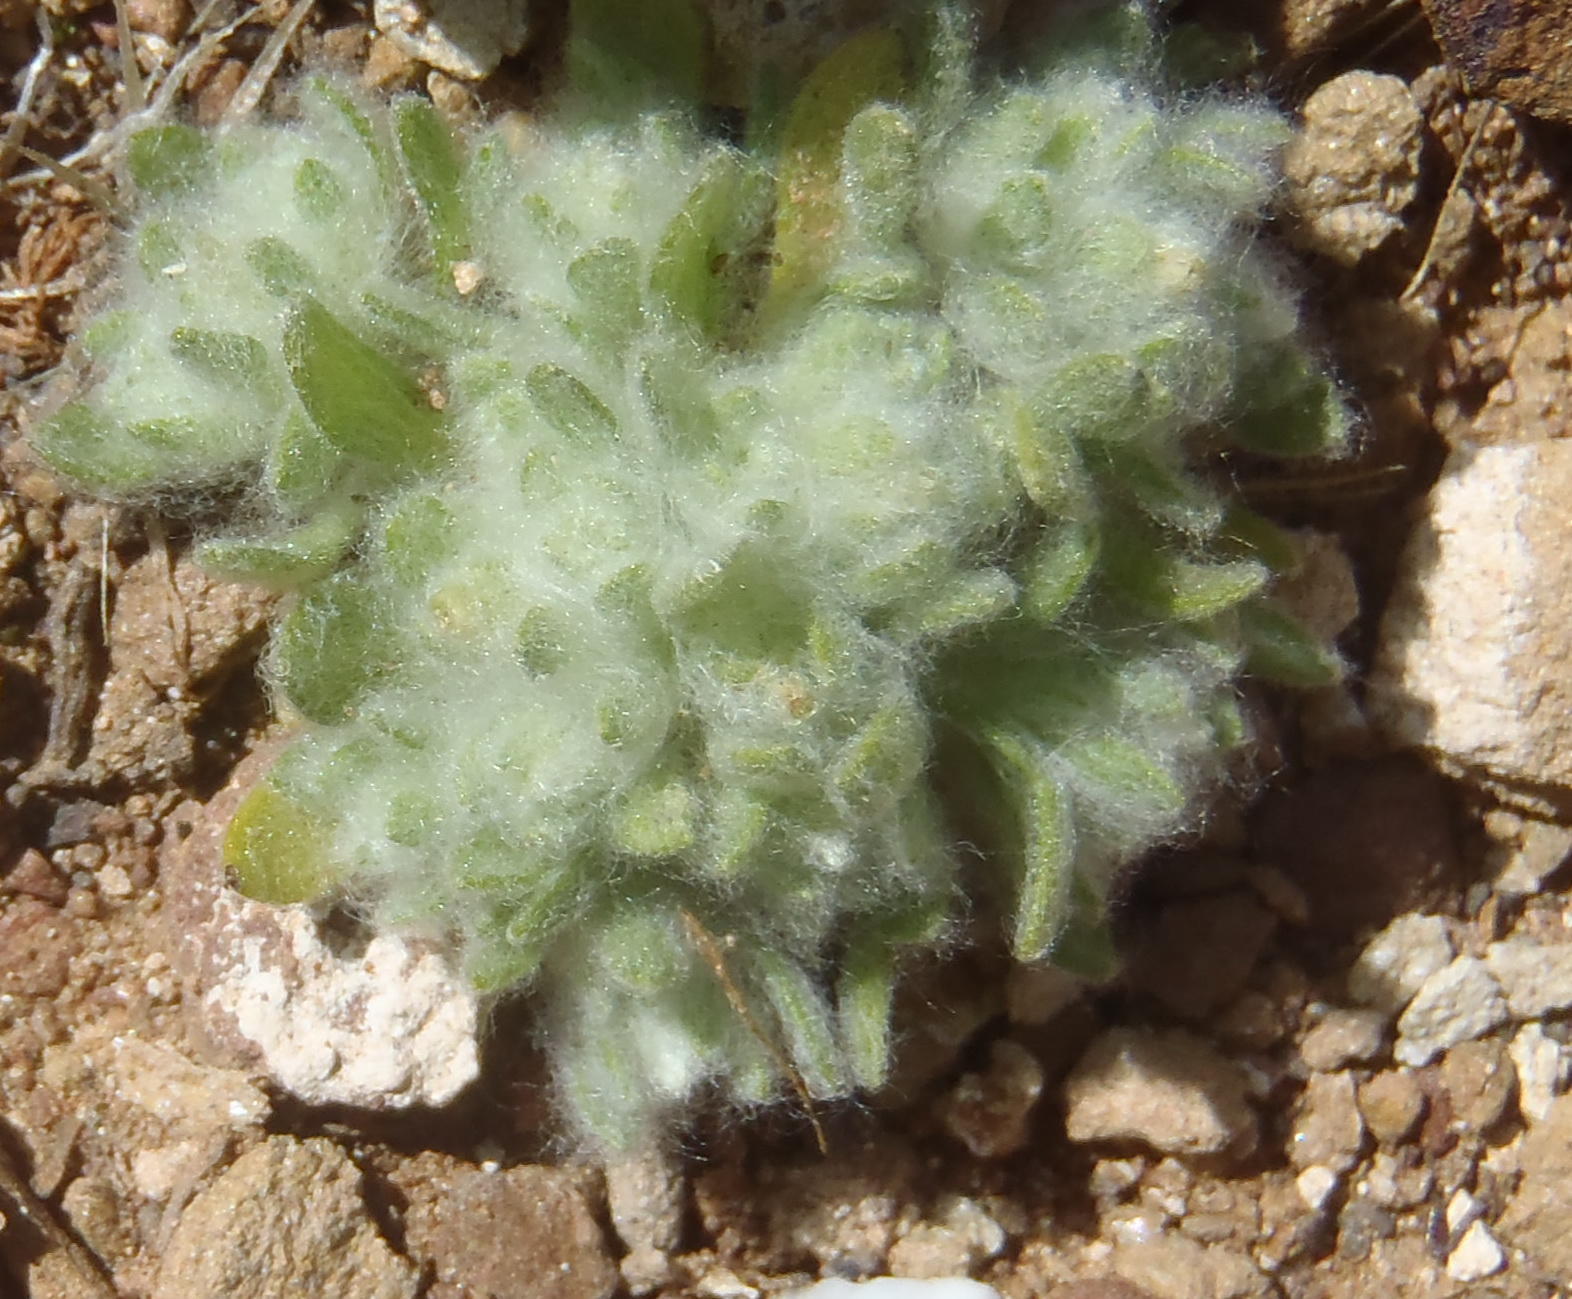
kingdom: Plantae
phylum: Tracheophyta
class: Magnoliopsida
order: Asterales
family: Asteraceae
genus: Lasiopogon
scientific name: Lasiopogon muscoides
